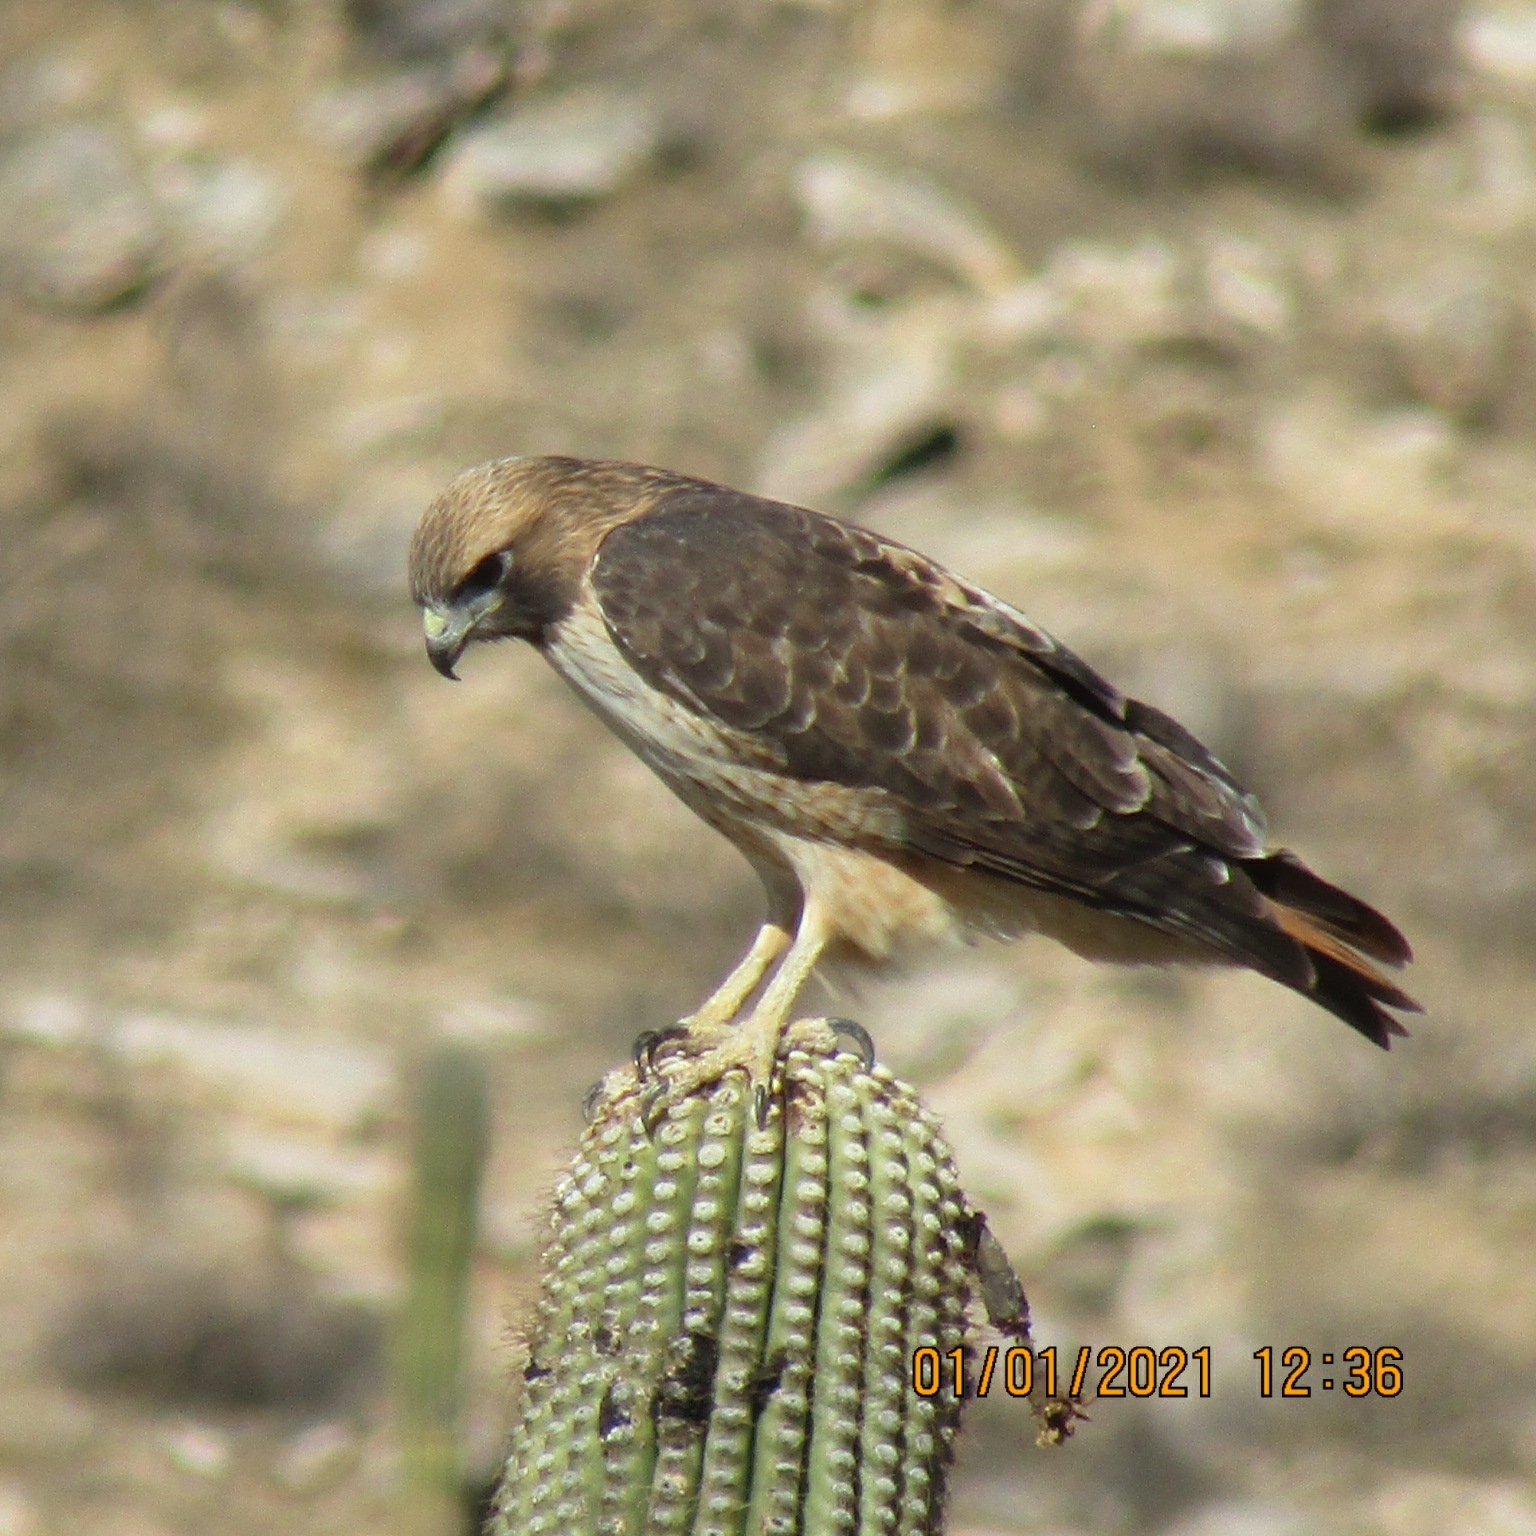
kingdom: Animalia
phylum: Chordata
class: Aves
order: Accipitriformes
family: Accipitridae
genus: Buteo
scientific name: Buteo jamaicensis
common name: Red-tailed hawk
